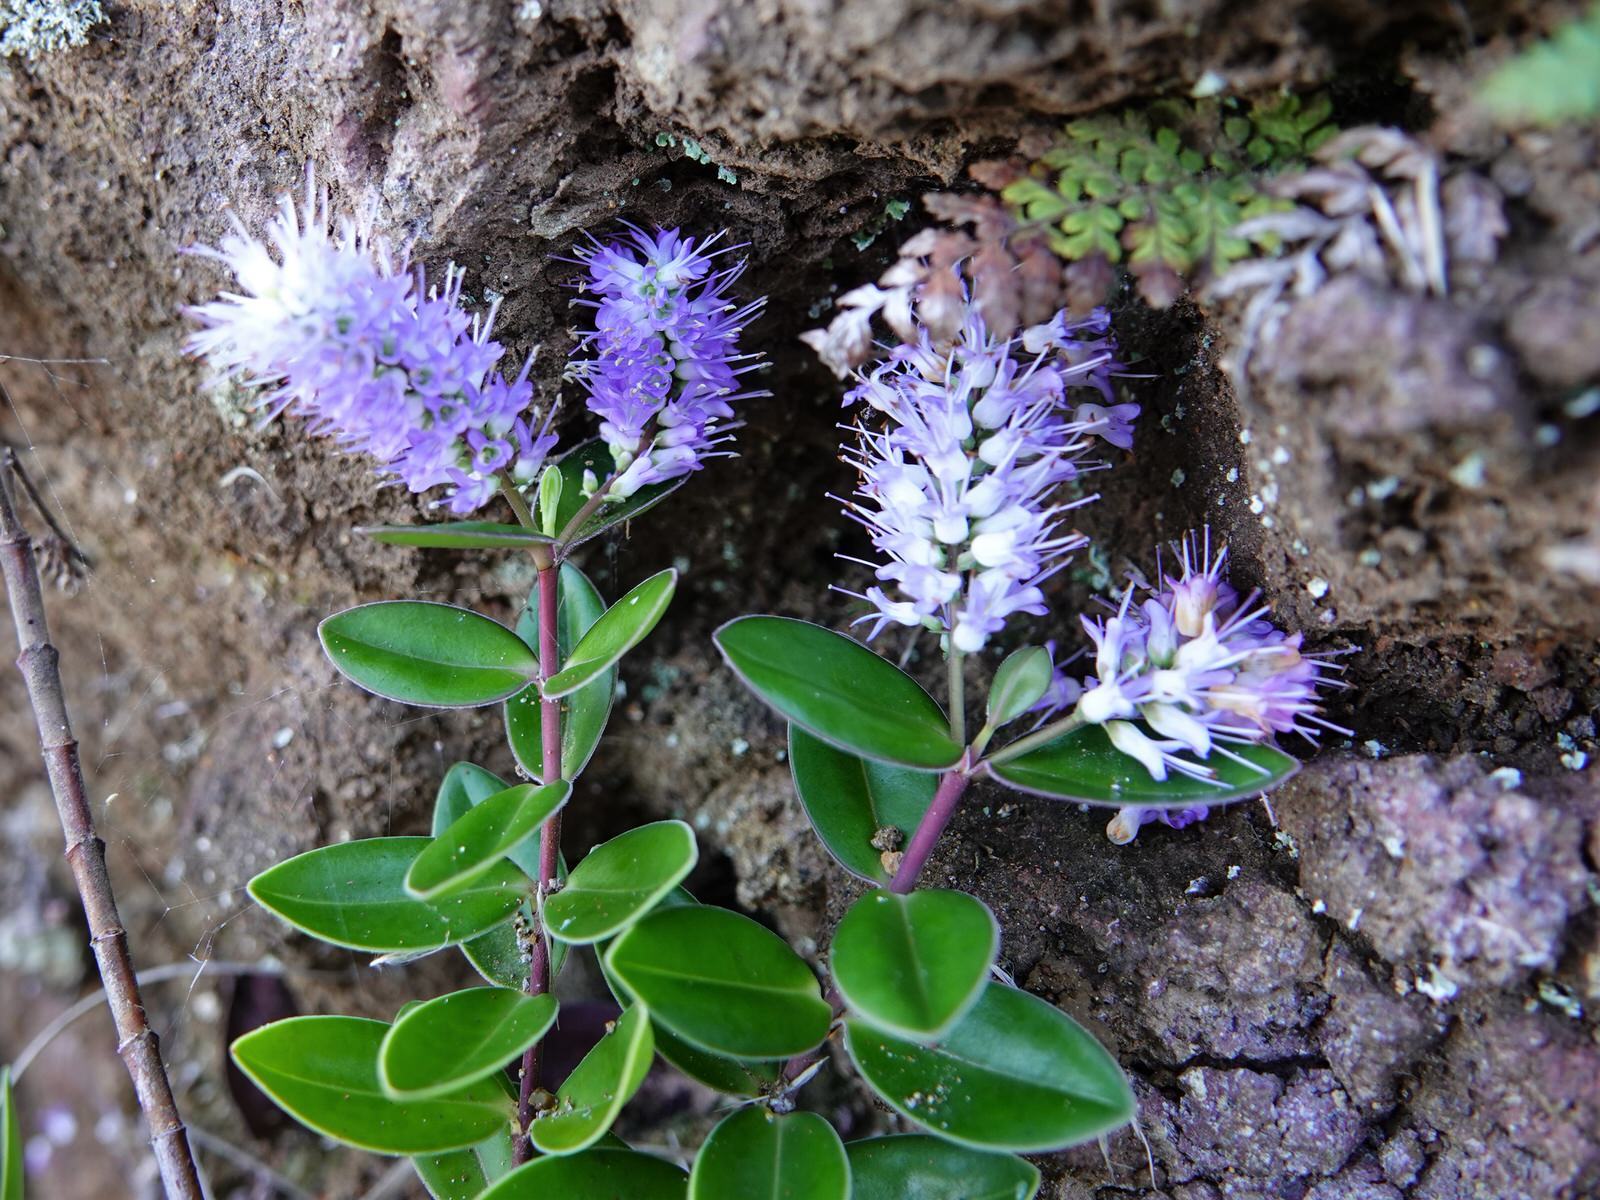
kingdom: Plantae
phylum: Tracheophyta
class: Magnoliopsida
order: Lamiales
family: Plantaginaceae
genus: Veronica
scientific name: Veronica obtusata
